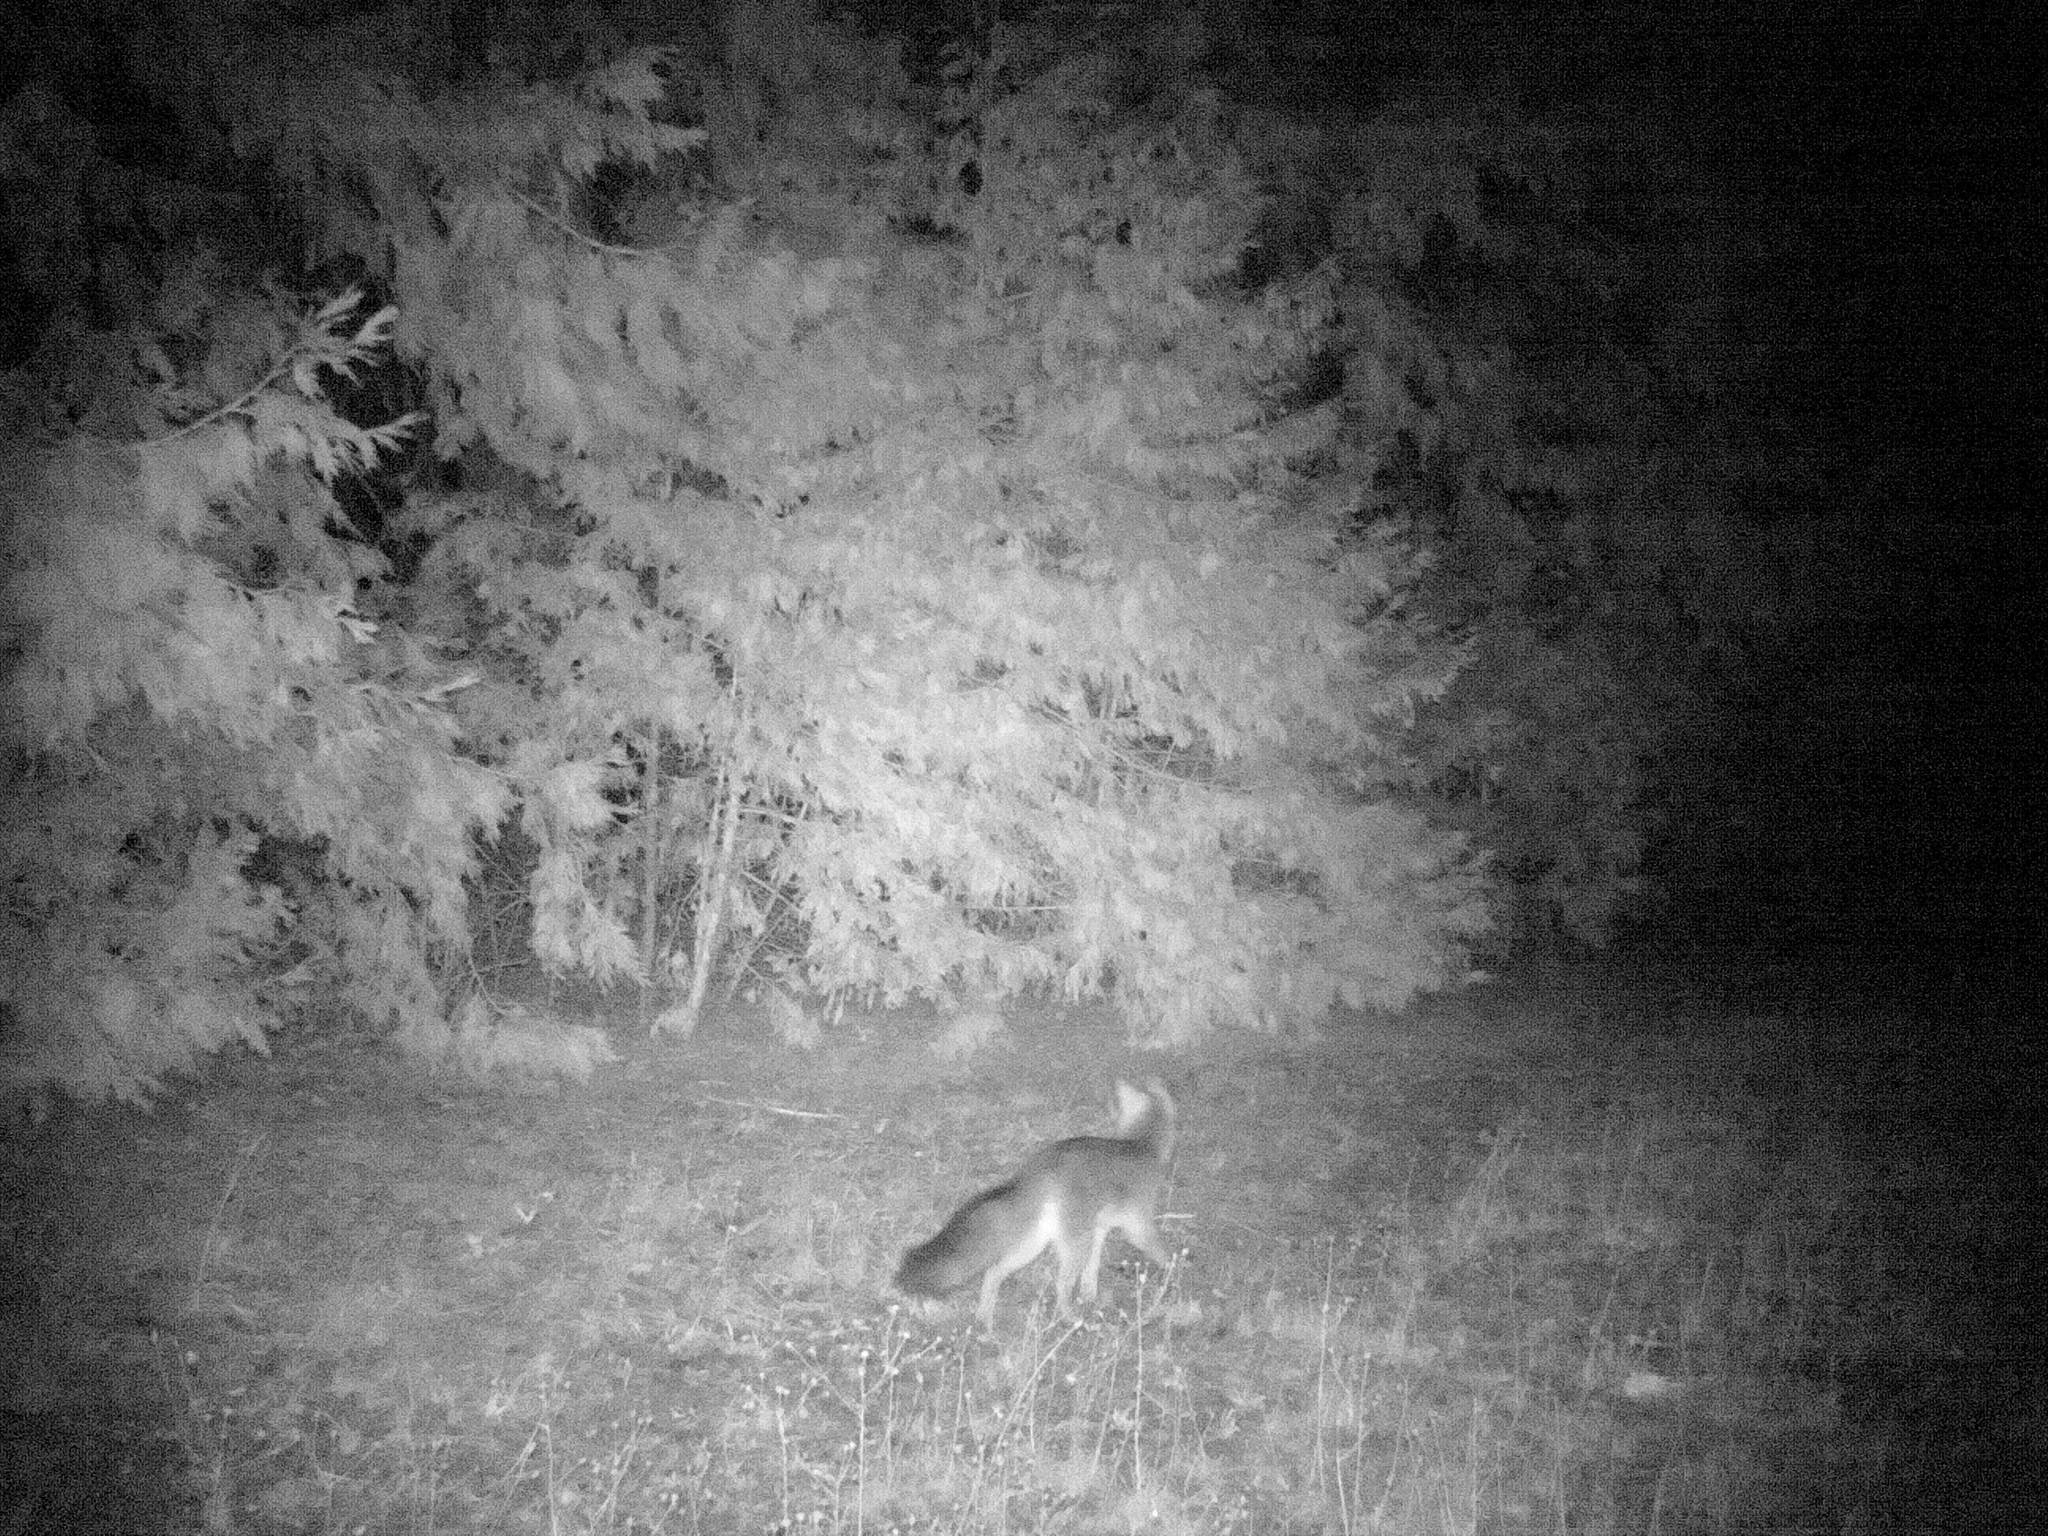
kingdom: Animalia
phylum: Chordata
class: Mammalia
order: Carnivora
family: Canidae
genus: Urocyon
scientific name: Urocyon cinereoargenteus
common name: Gray fox
